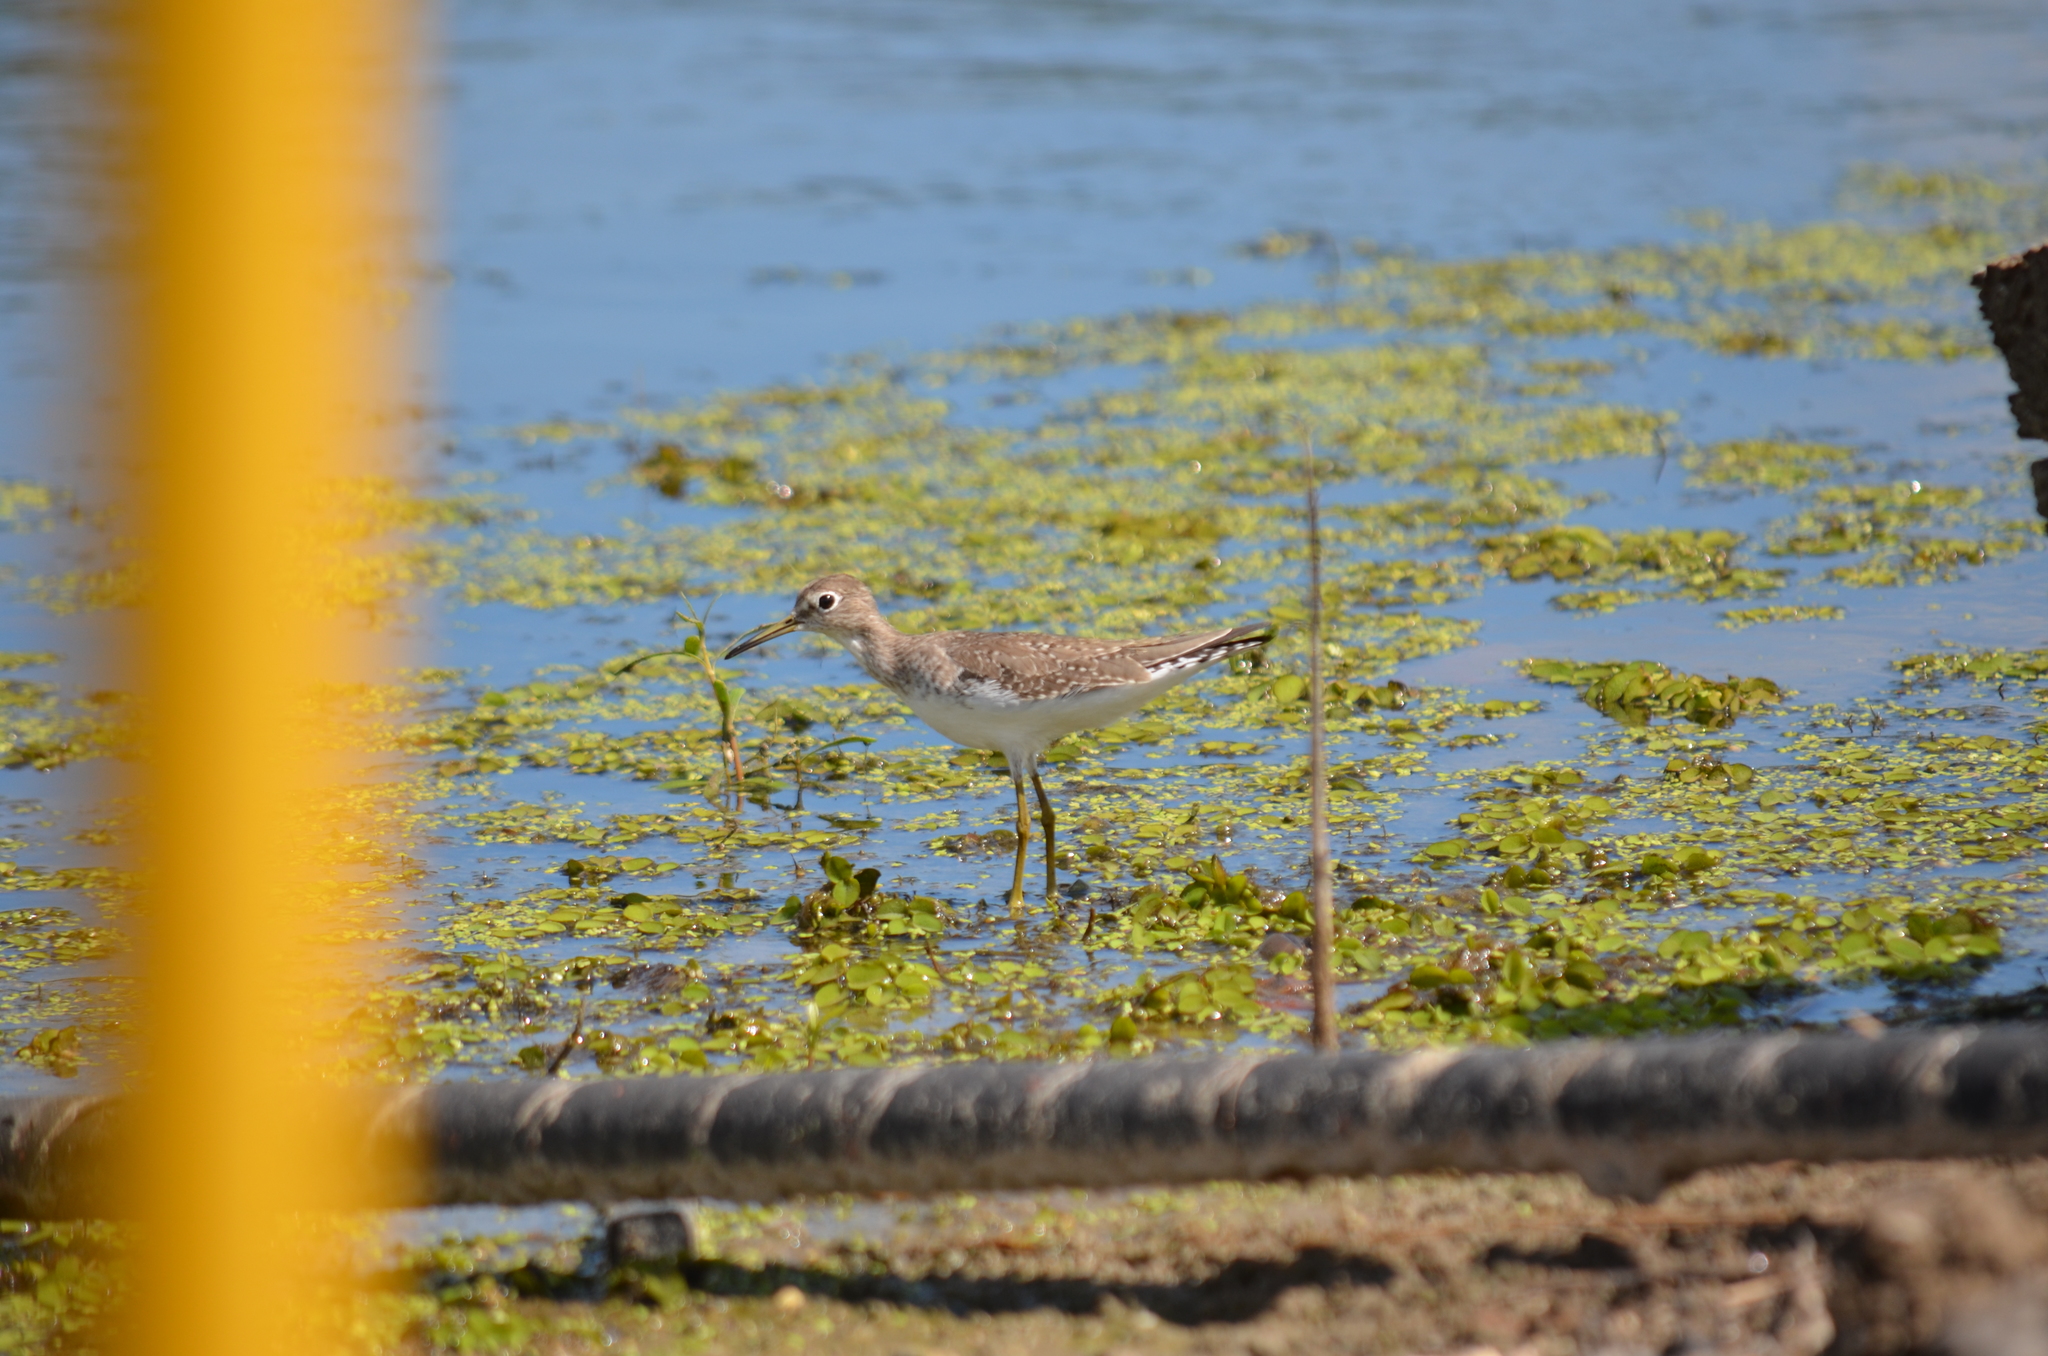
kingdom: Animalia
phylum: Chordata
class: Aves
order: Charadriiformes
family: Scolopacidae
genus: Tringa
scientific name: Tringa solitaria
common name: Solitary sandpiper
